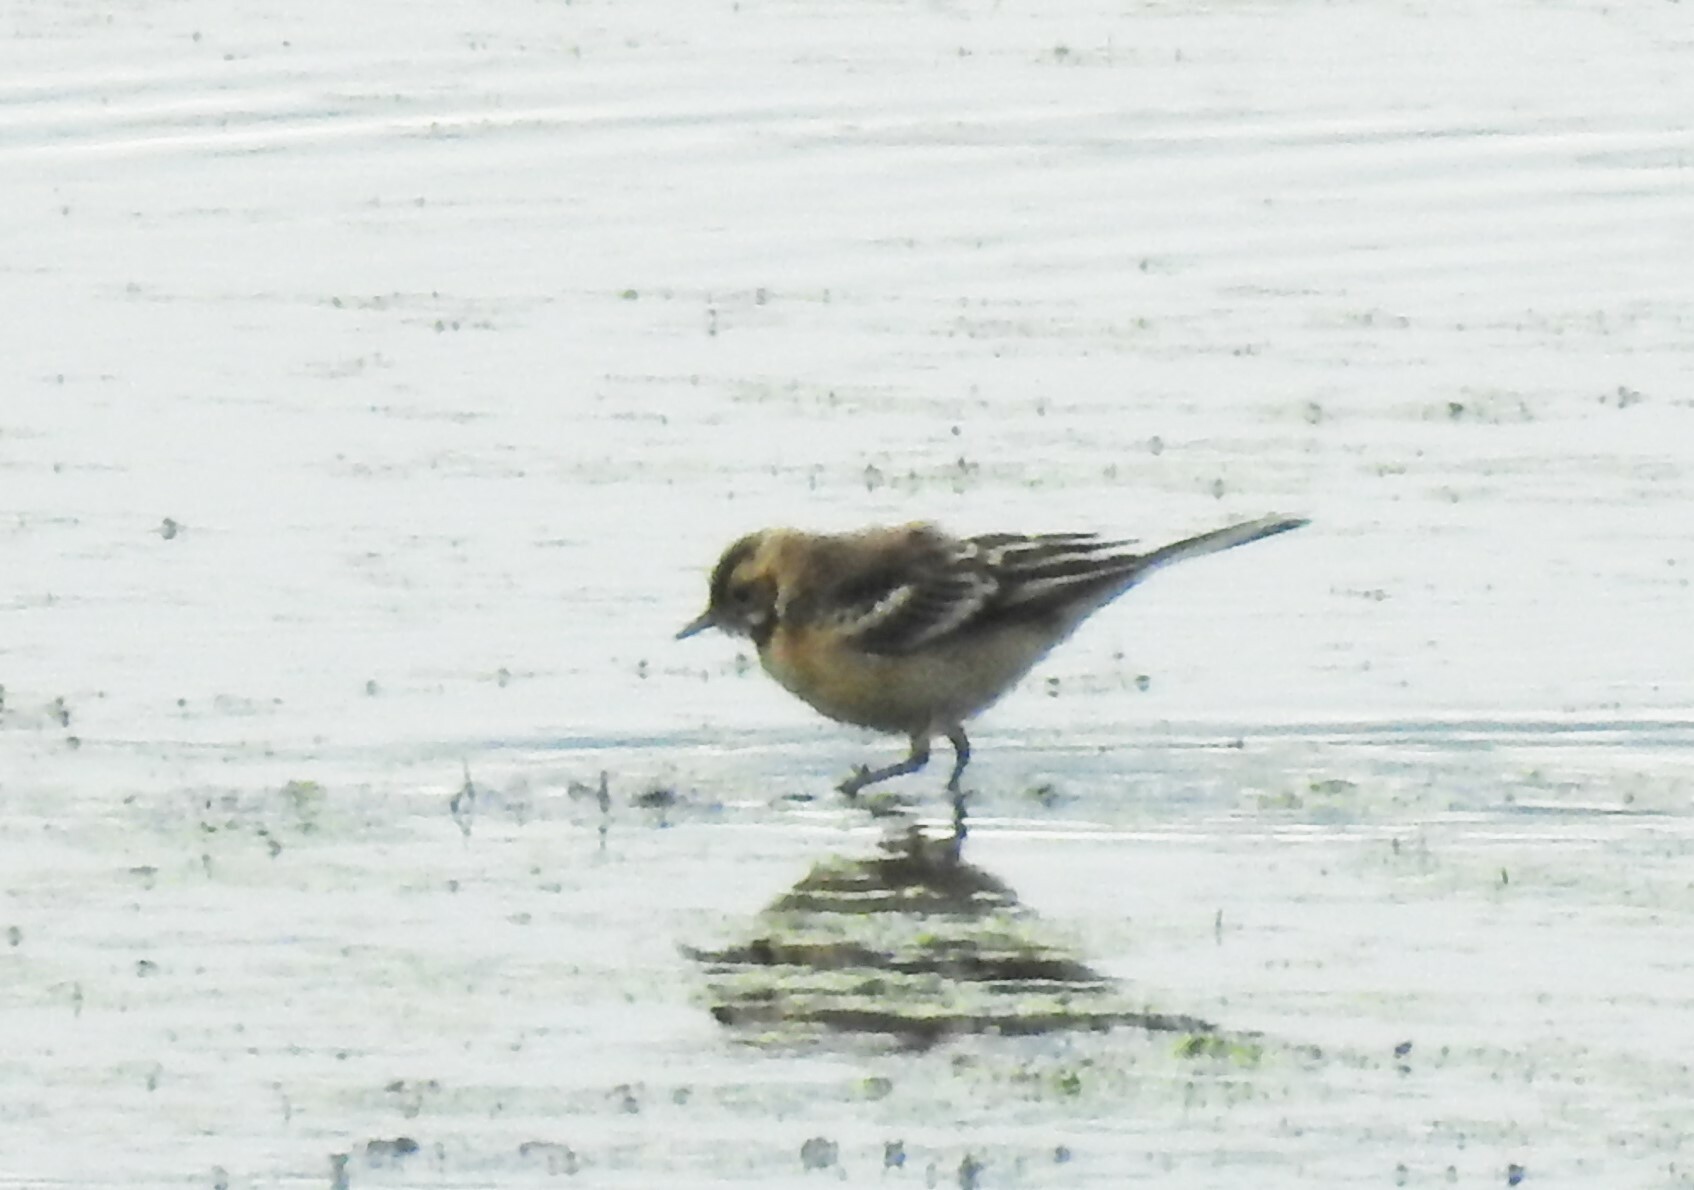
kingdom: Animalia
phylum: Chordata
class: Aves
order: Passeriformes
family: Motacillidae
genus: Motacilla
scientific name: Motacilla citreola
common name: Citrine wagtail
